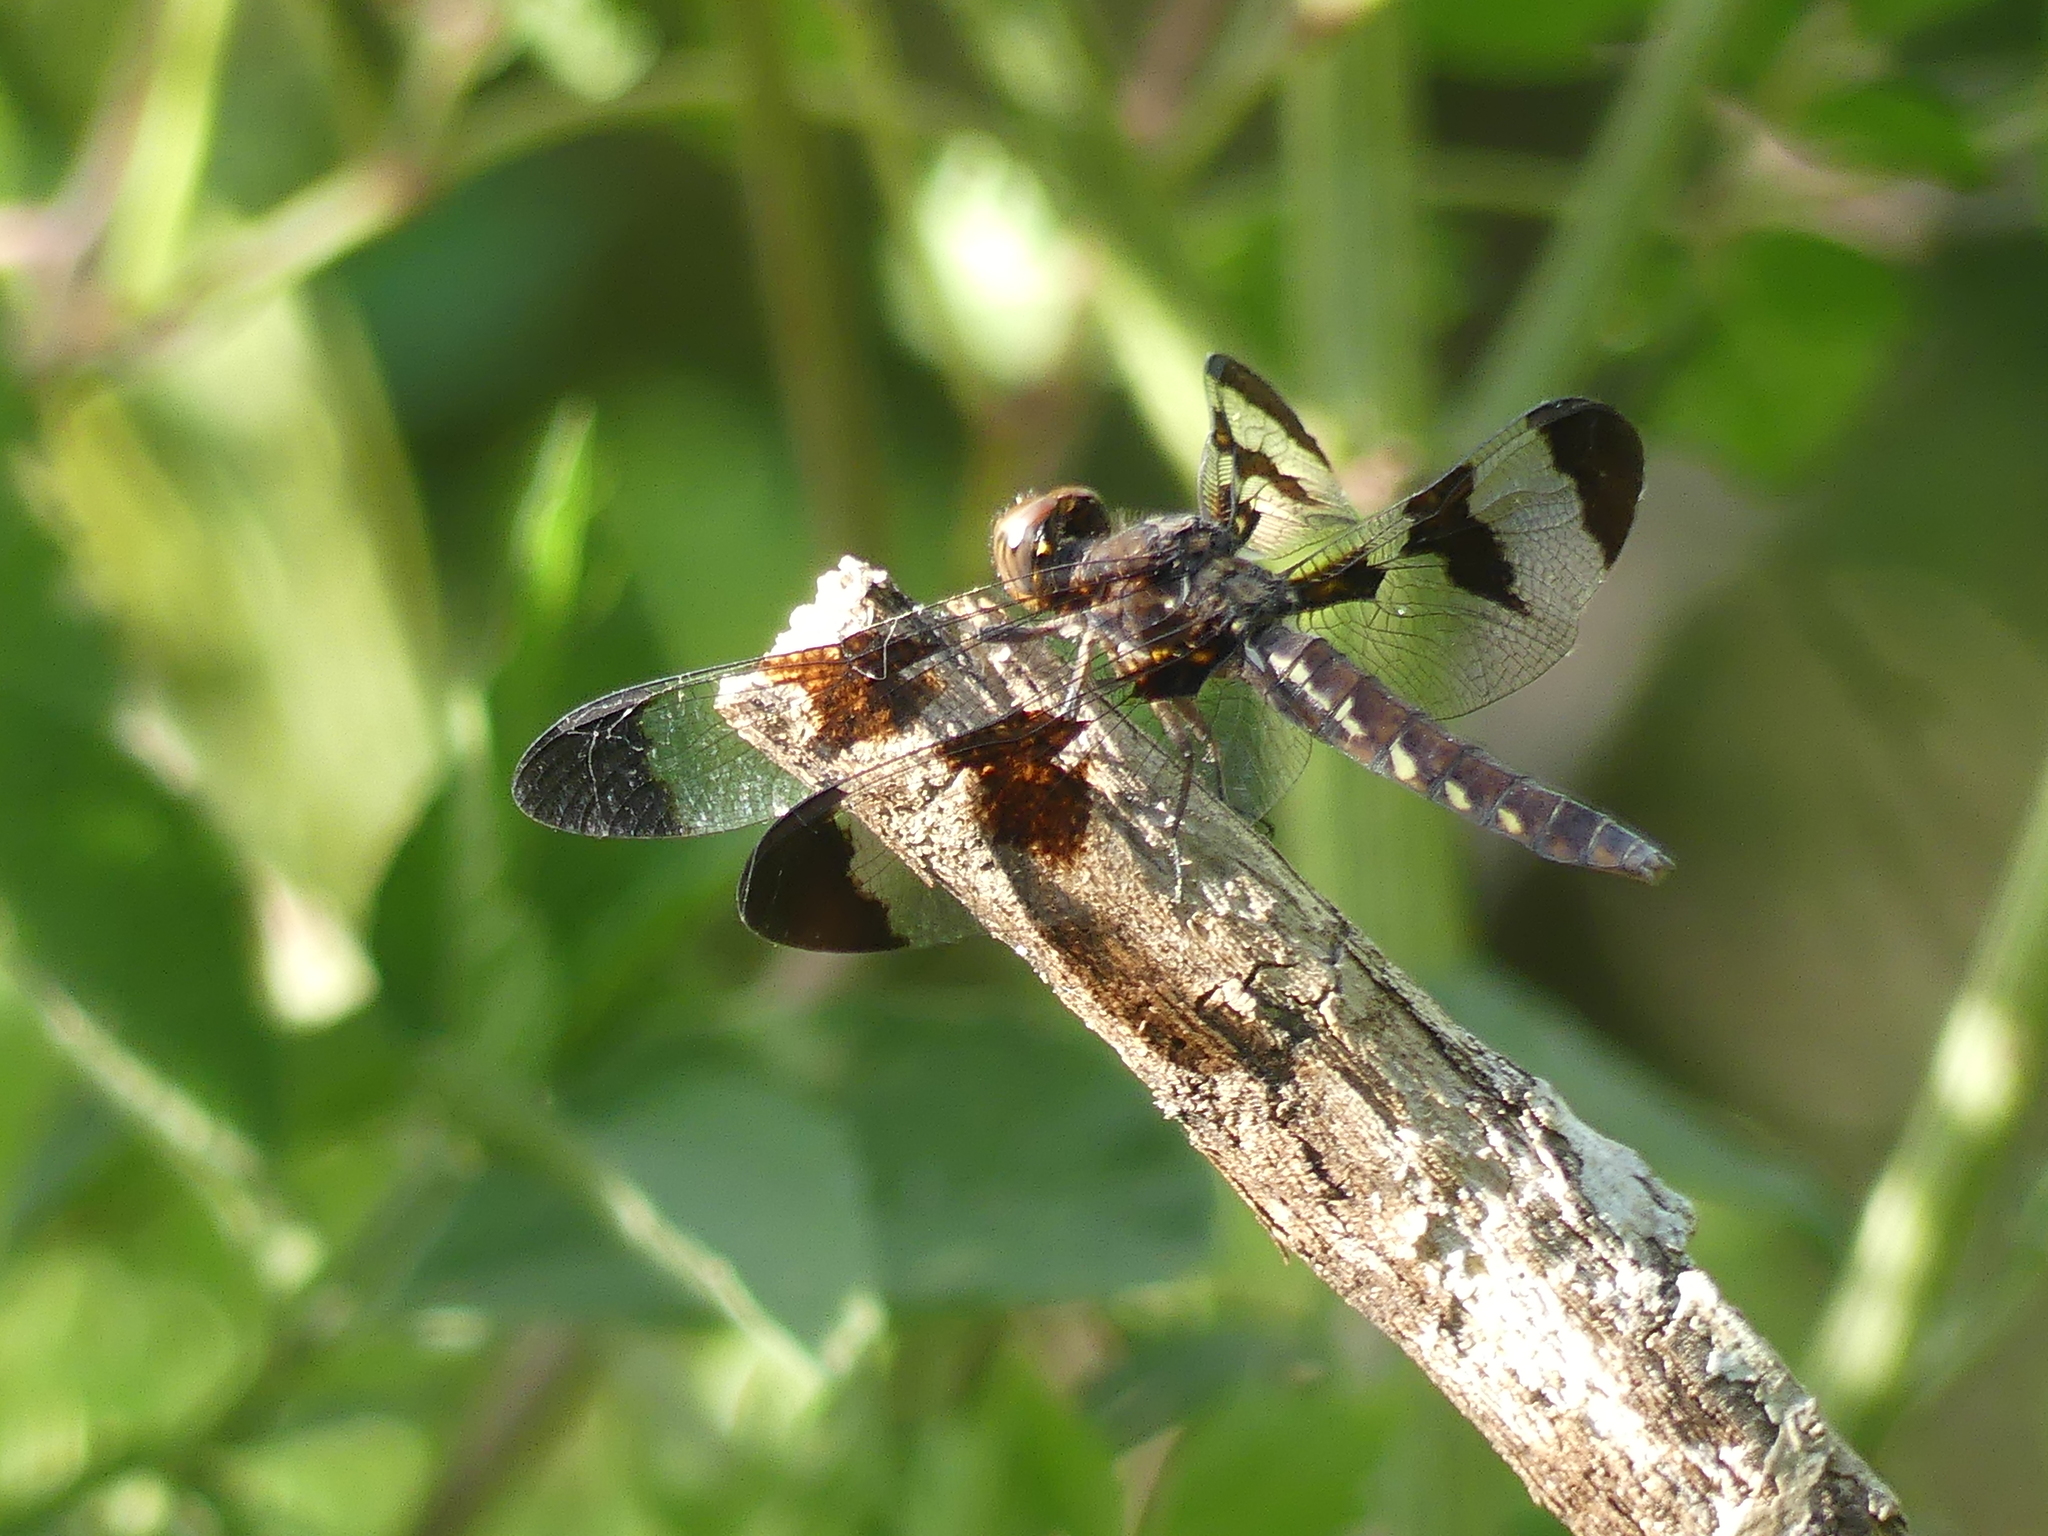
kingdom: Animalia
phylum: Arthropoda
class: Insecta
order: Odonata
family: Libellulidae
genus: Plathemis
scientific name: Plathemis lydia
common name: Common whitetail
